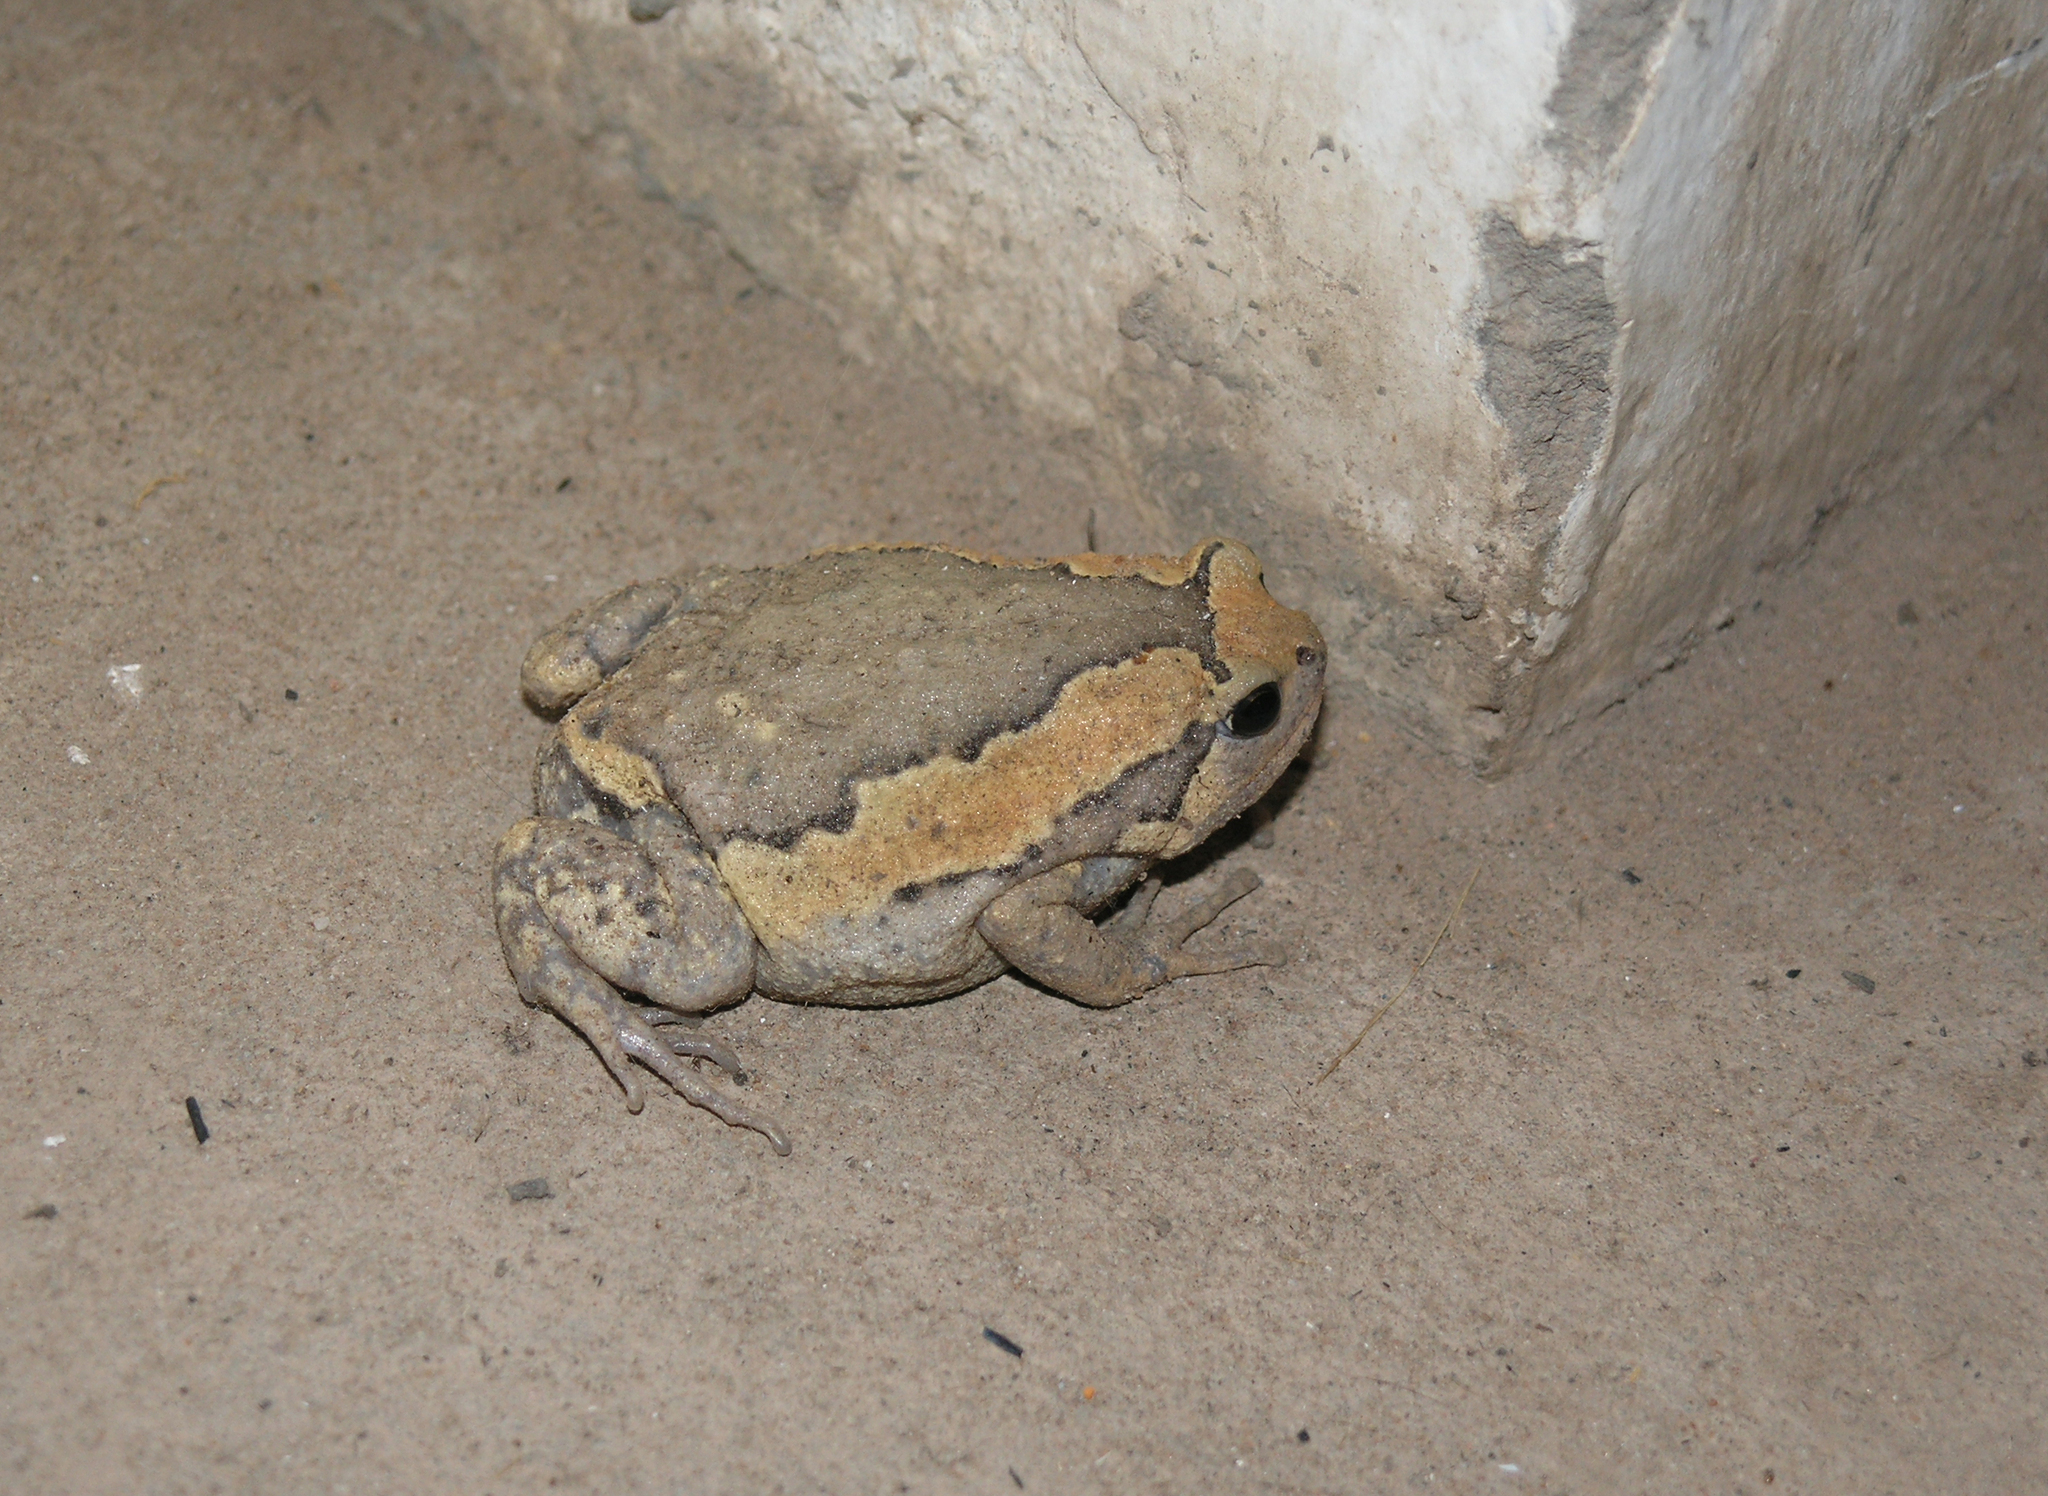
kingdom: Animalia
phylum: Chordata
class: Amphibia
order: Anura
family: Microhylidae
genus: Kaloula
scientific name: Kaloula pulchra
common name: Common,banded bullfrog
